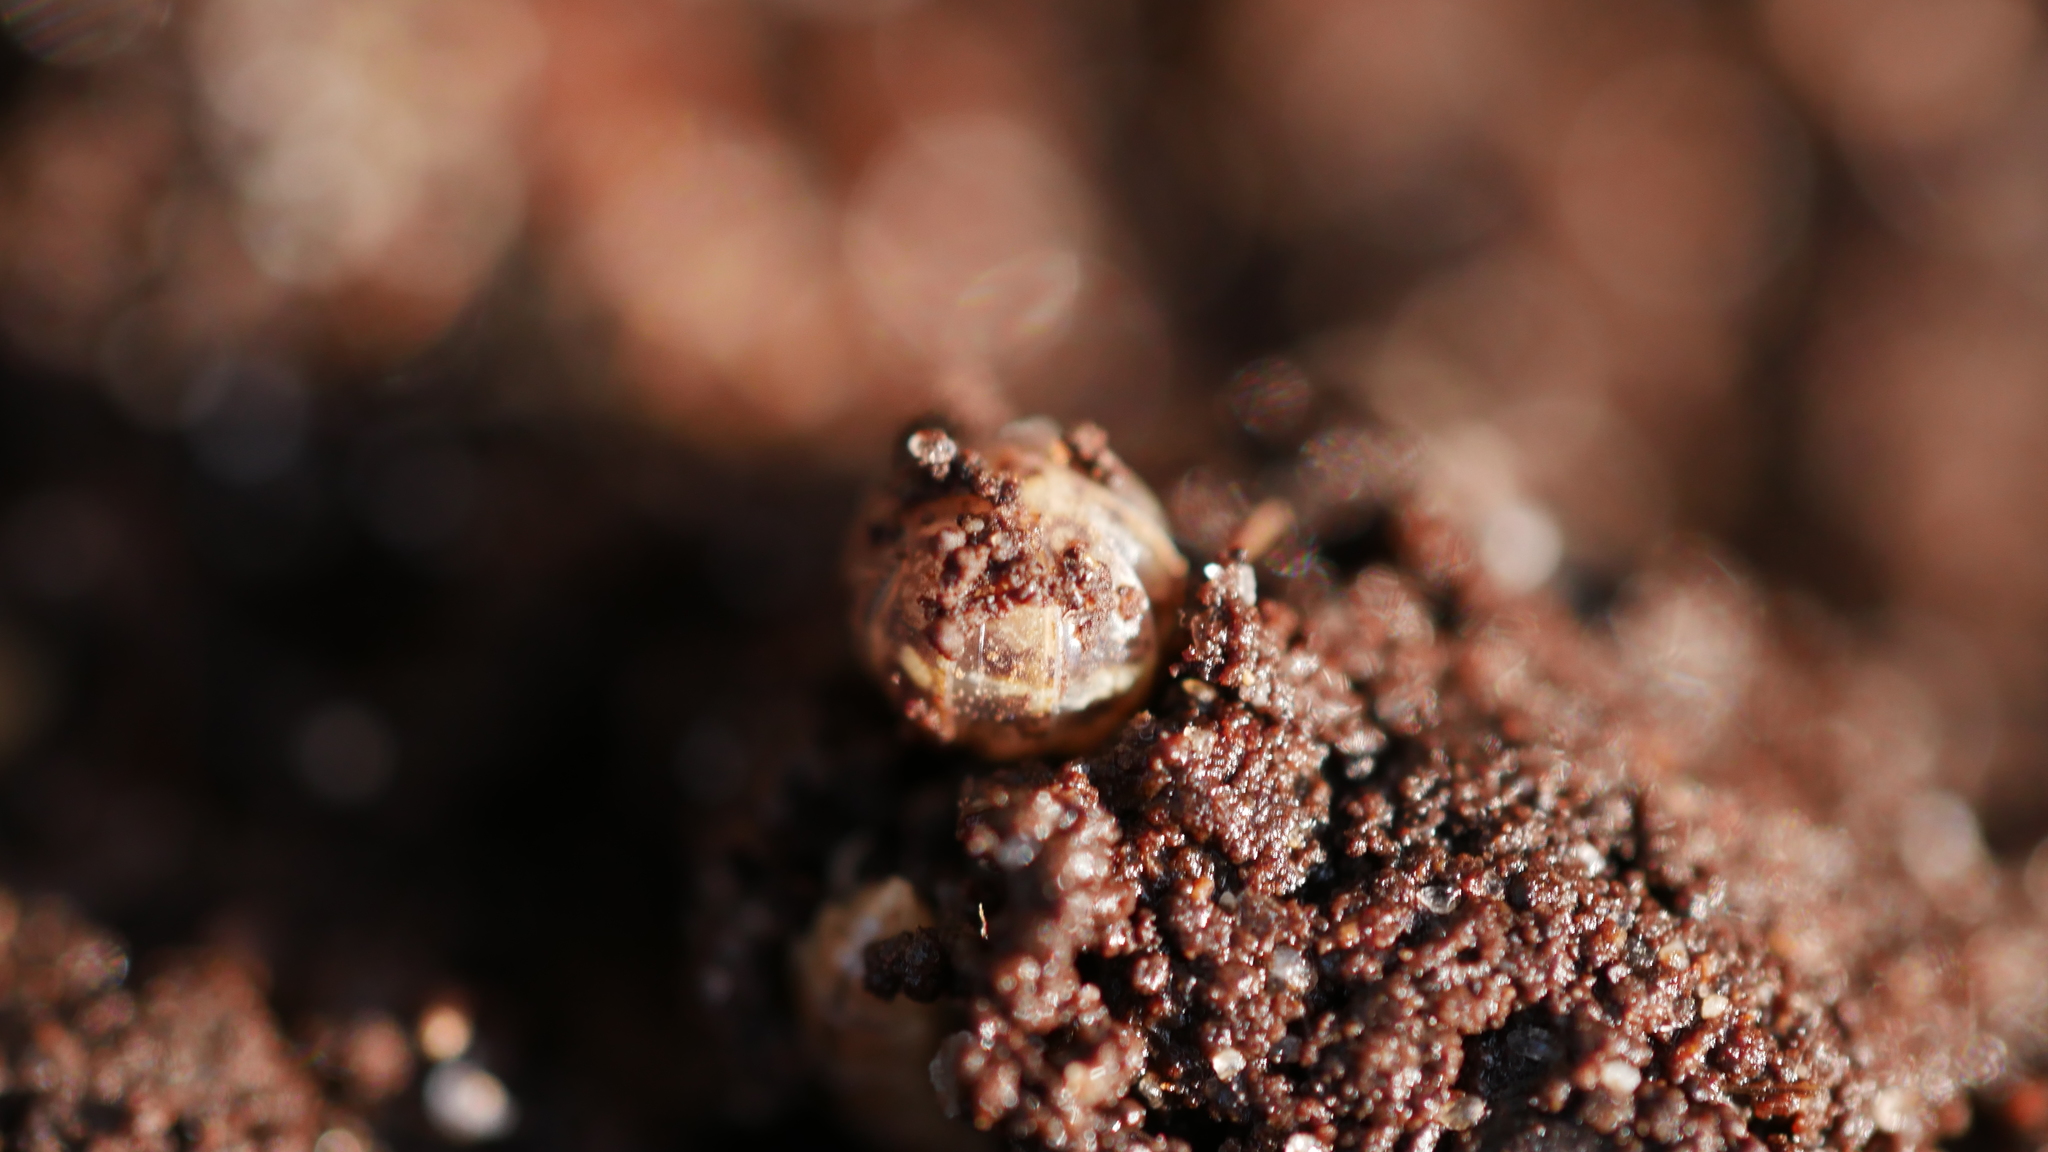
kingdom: Animalia
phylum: Arthropoda
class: Malacostraca
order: Isopoda
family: Armadillidiidae
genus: Armadillidium
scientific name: Armadillidium nasatum
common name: Isopod
